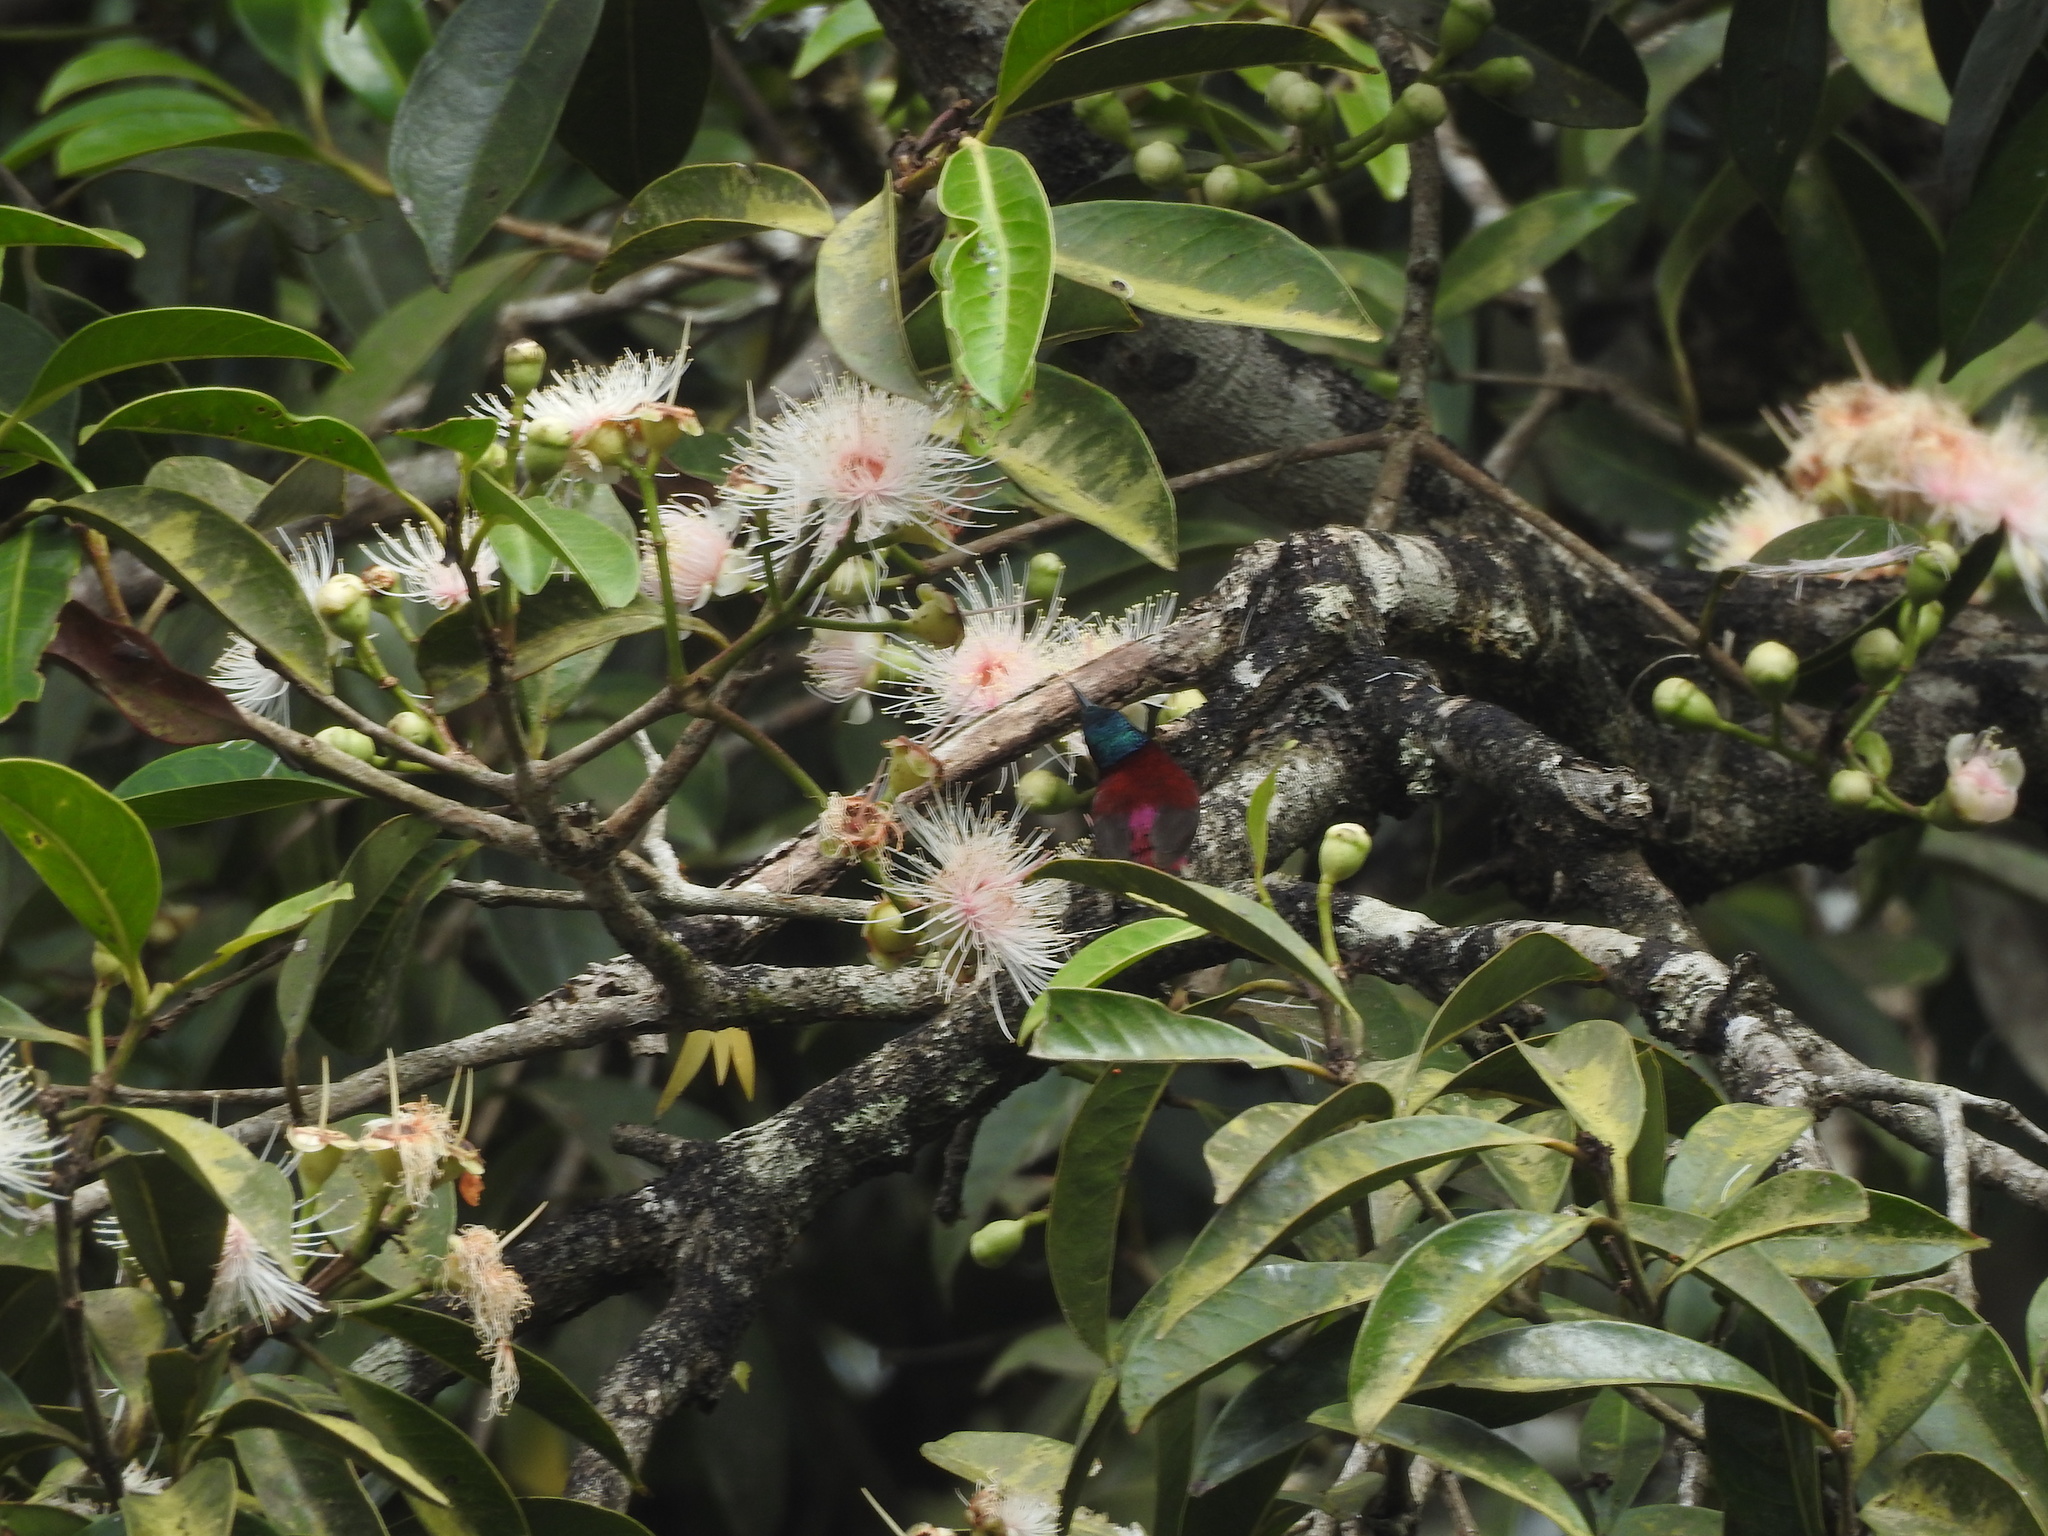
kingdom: Animalia
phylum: Chordata
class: Aves
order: Passeriformes
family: Nectariniidae
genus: Leptocoma
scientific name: Leptocoma minima
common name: Crimson-backed sunbird
